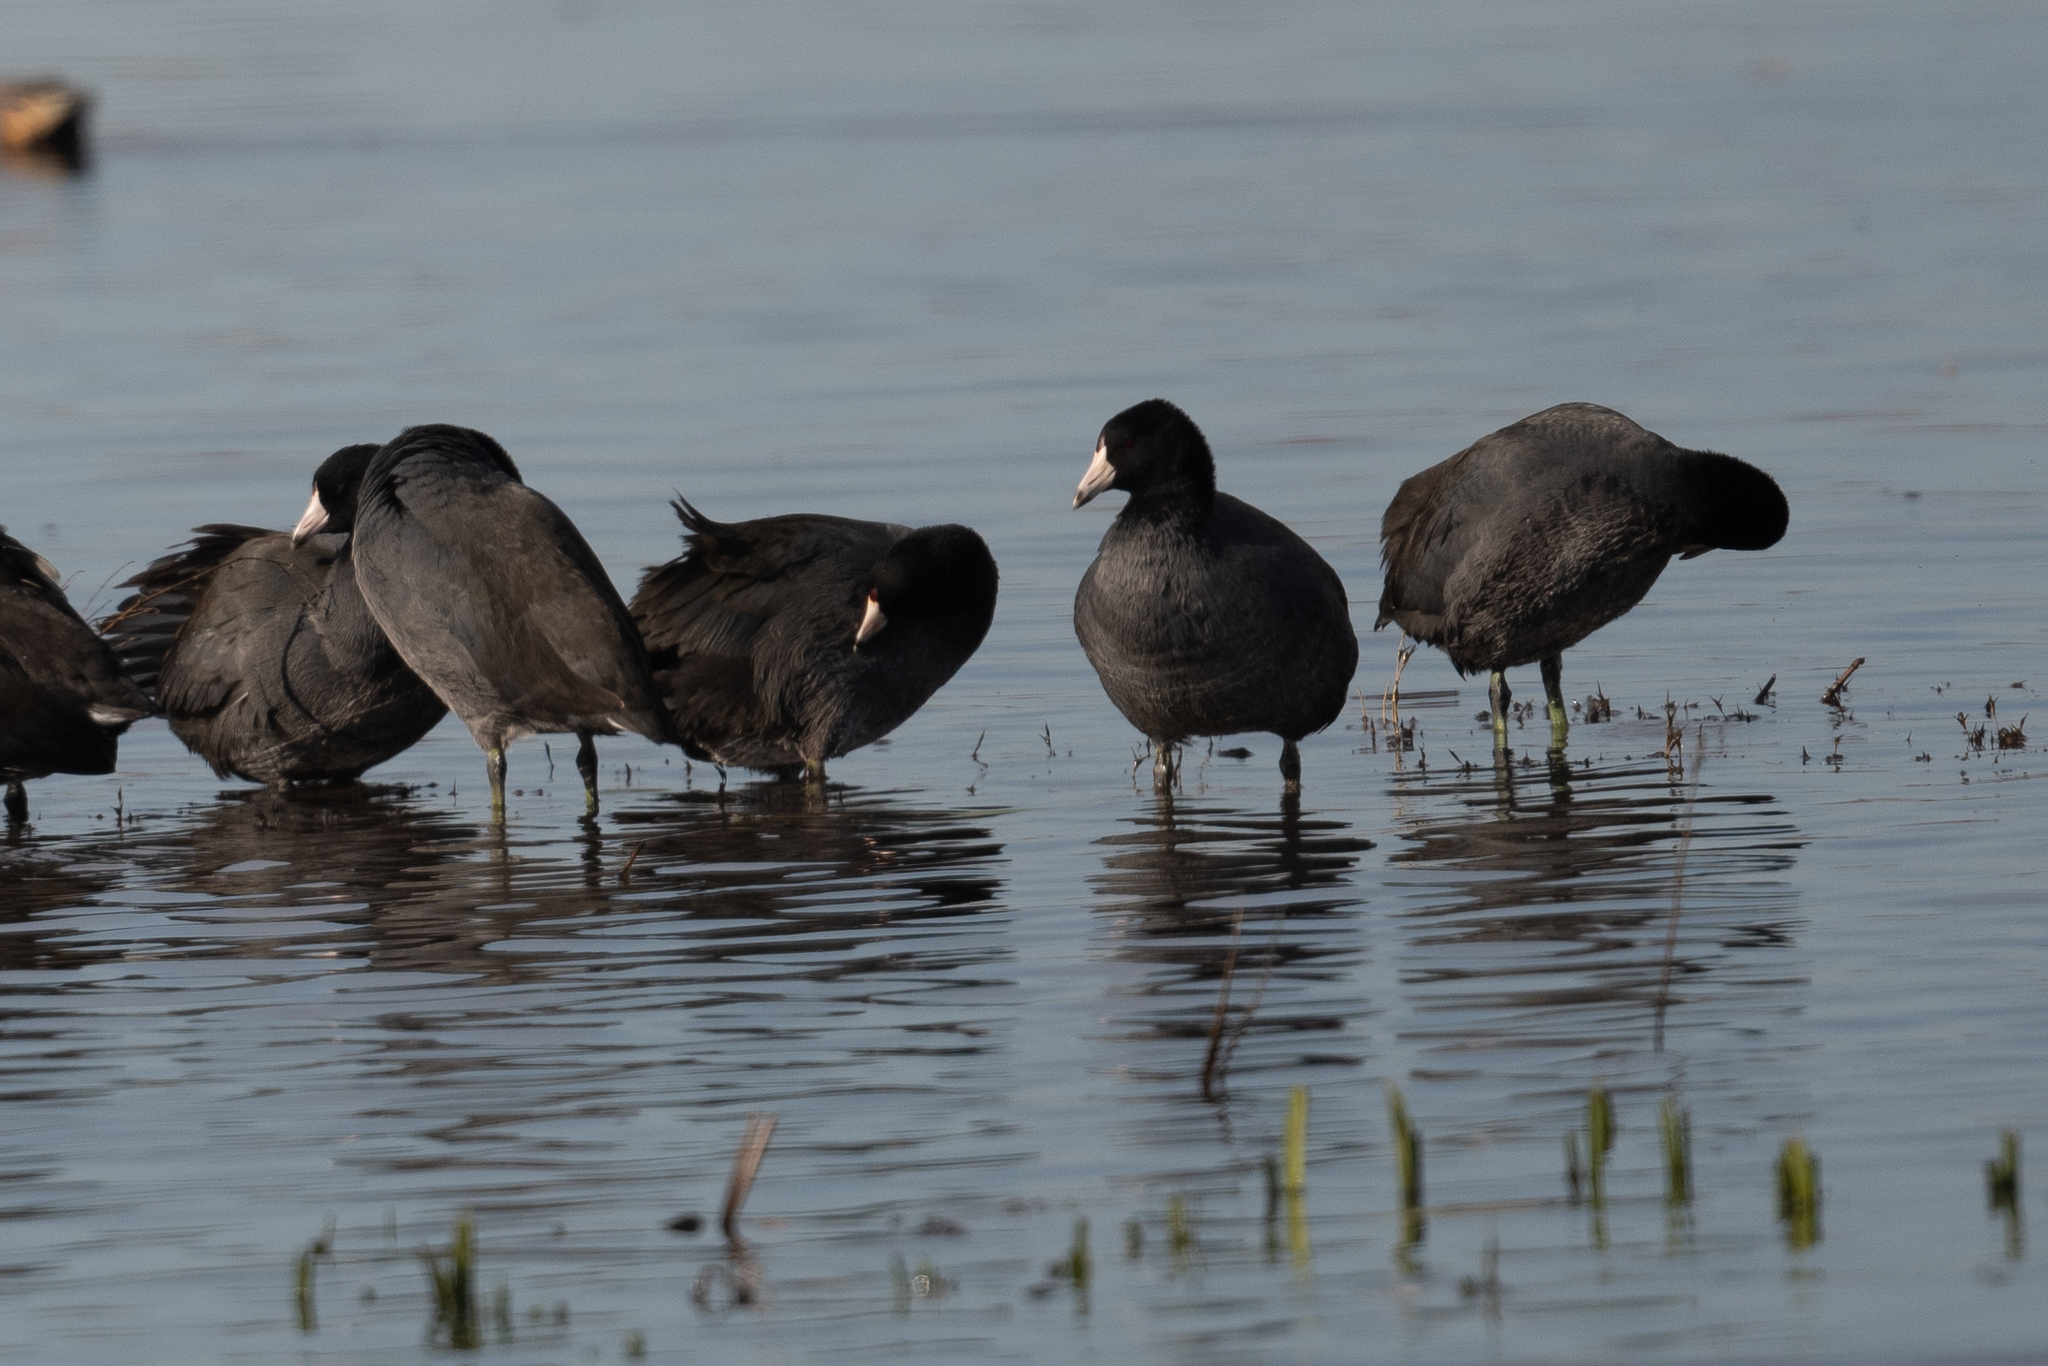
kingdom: Animalia
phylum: Chordata
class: Aves
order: Gruiformes
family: Rallidae
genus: Fulica
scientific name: Fulica americana
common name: American coot
